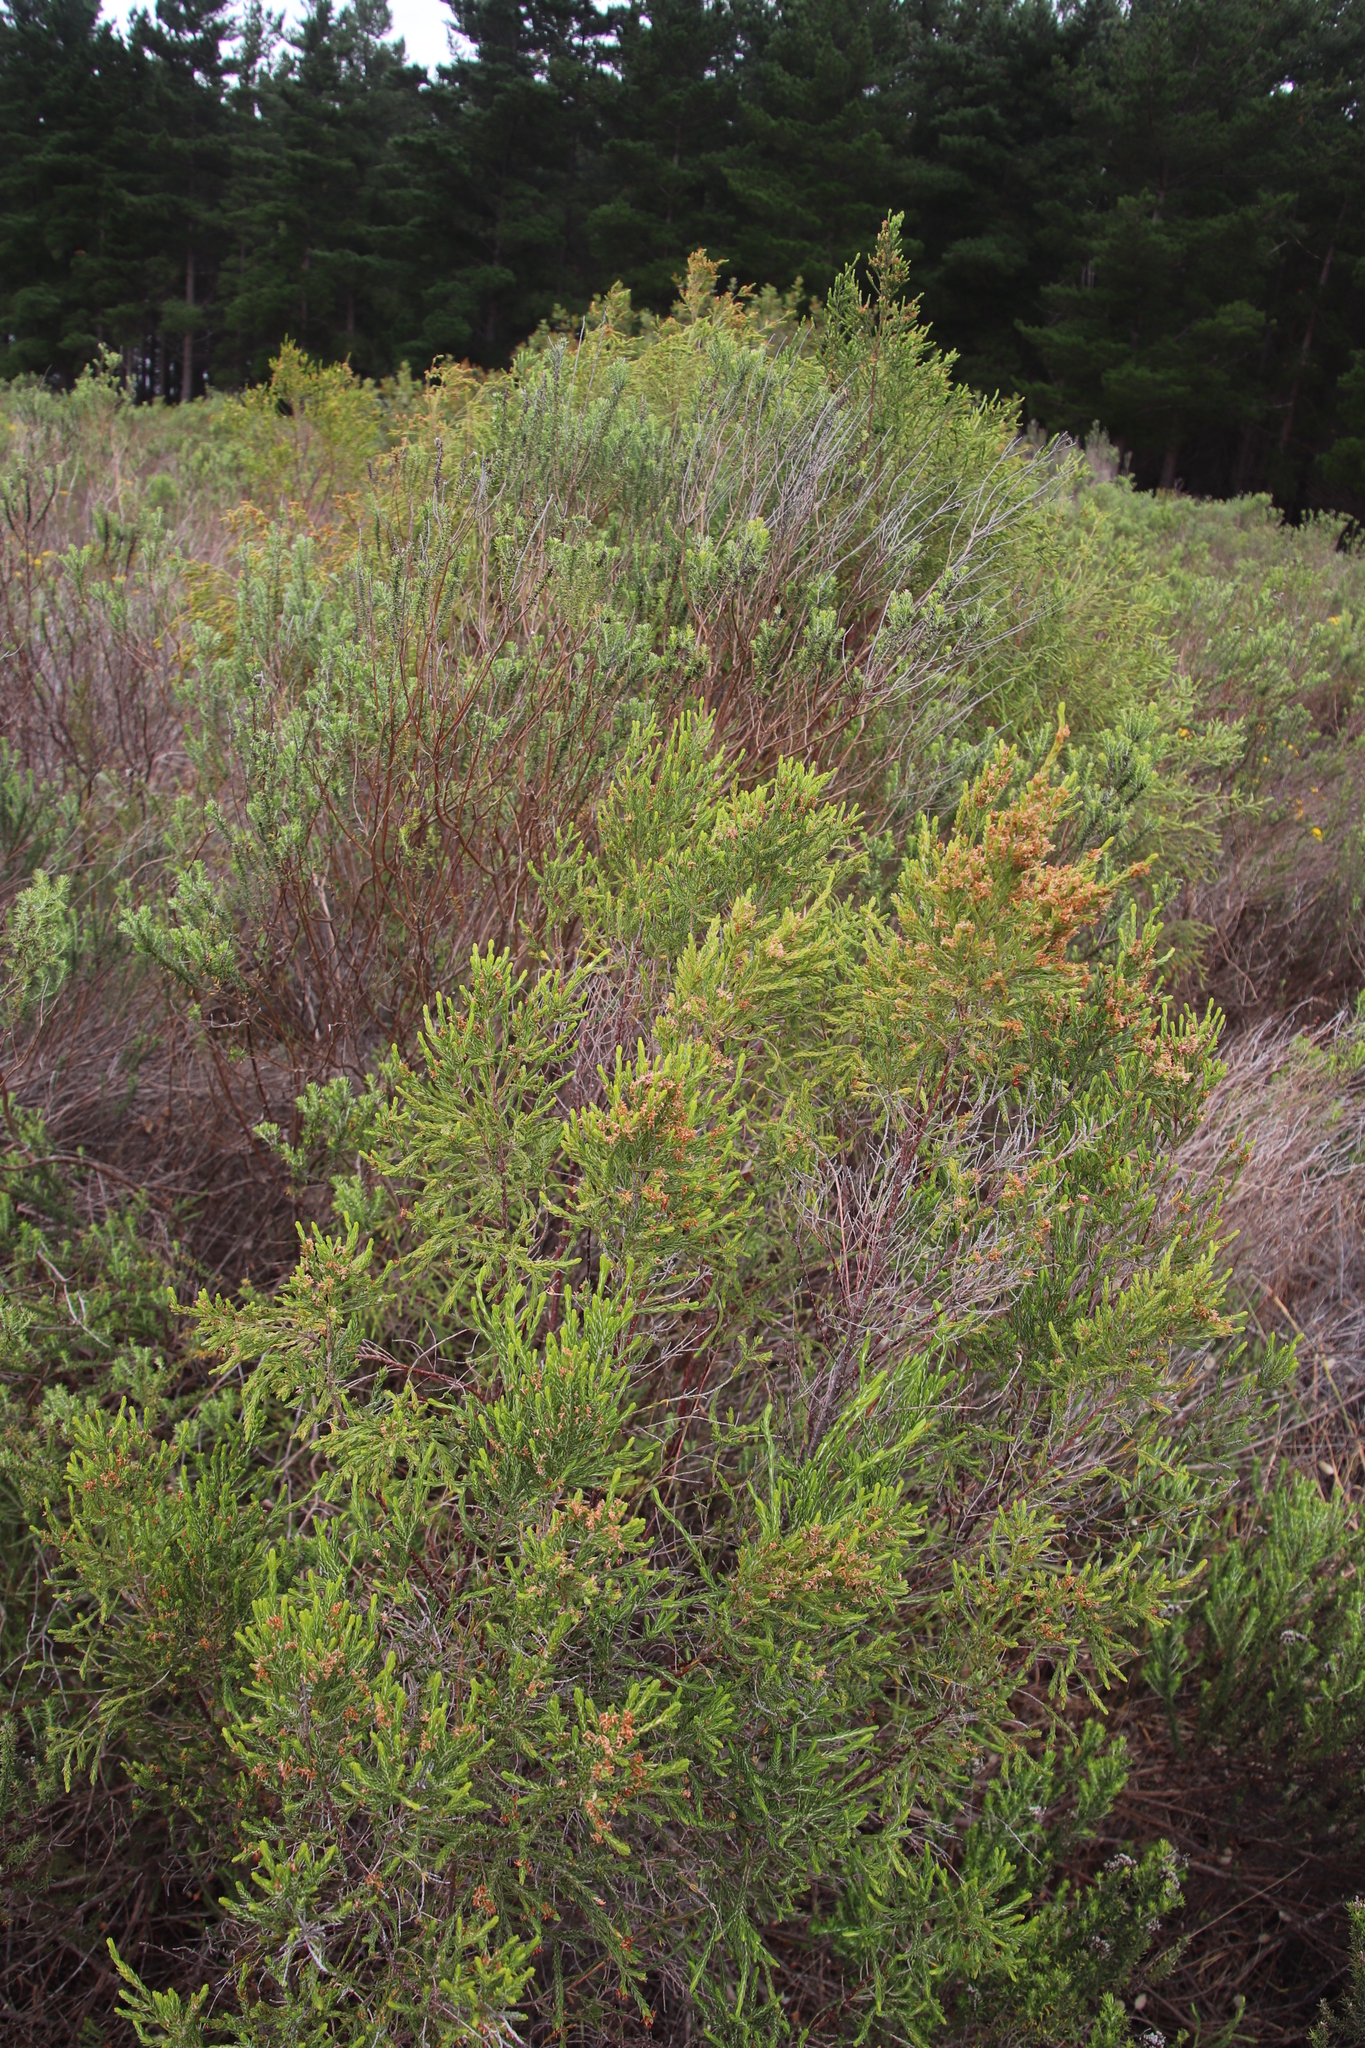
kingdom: Plantae
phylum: Tracheophyta
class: Magnoliopsida
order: Malvales
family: Thymelaeaceae
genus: Passerina
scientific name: Passerina corymbosa
